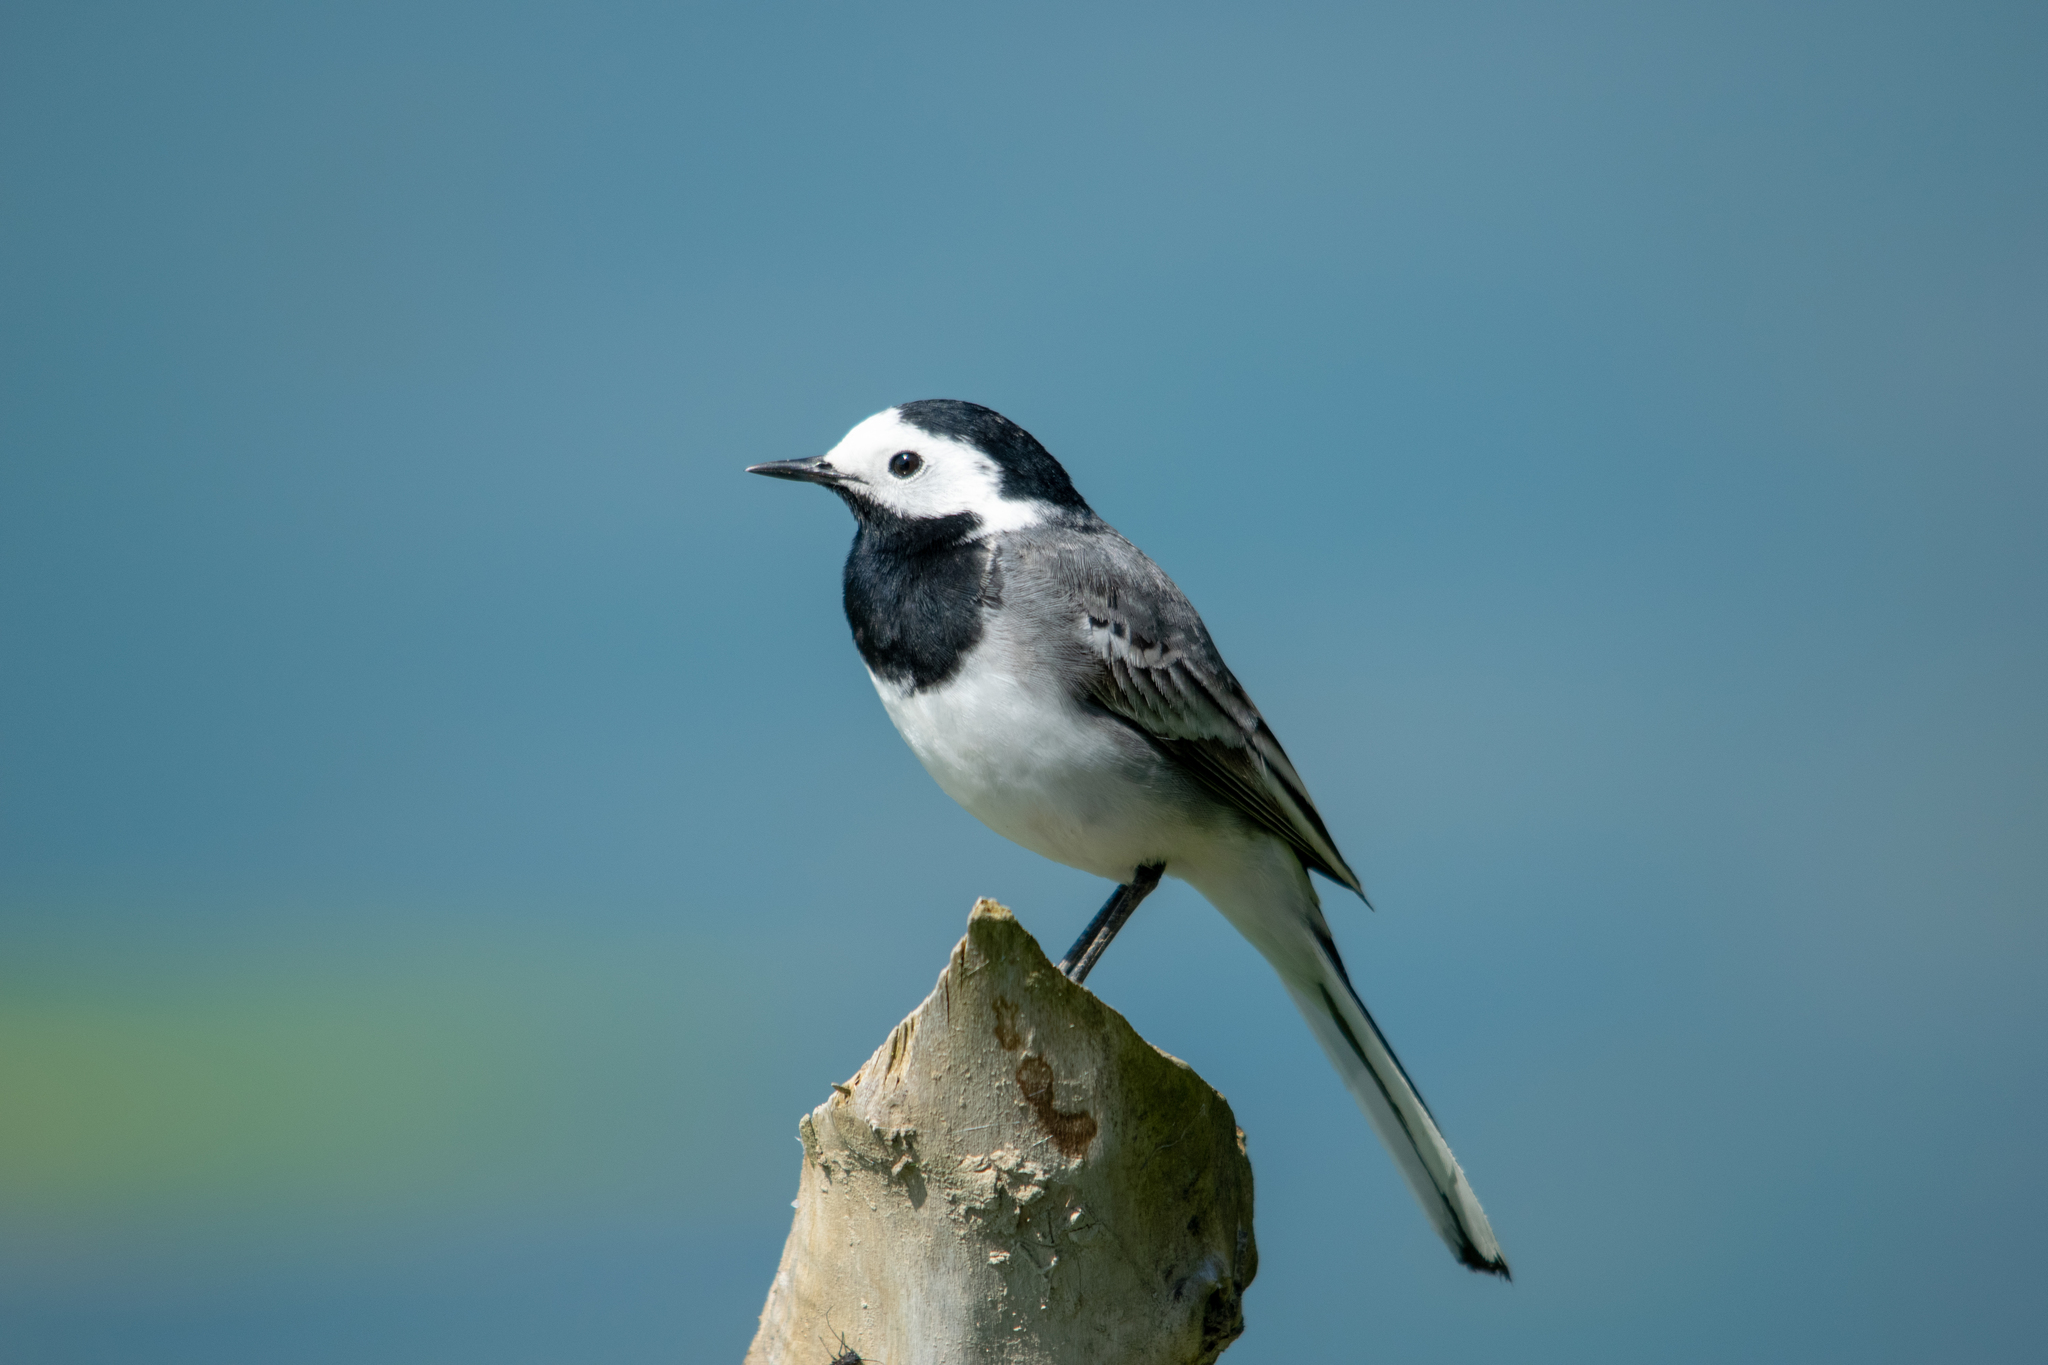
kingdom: Animalia
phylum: Chordata
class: Aves
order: Passeriformes
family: Motacillidae
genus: Motacilla
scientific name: Motacilla alba
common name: White wagtail
